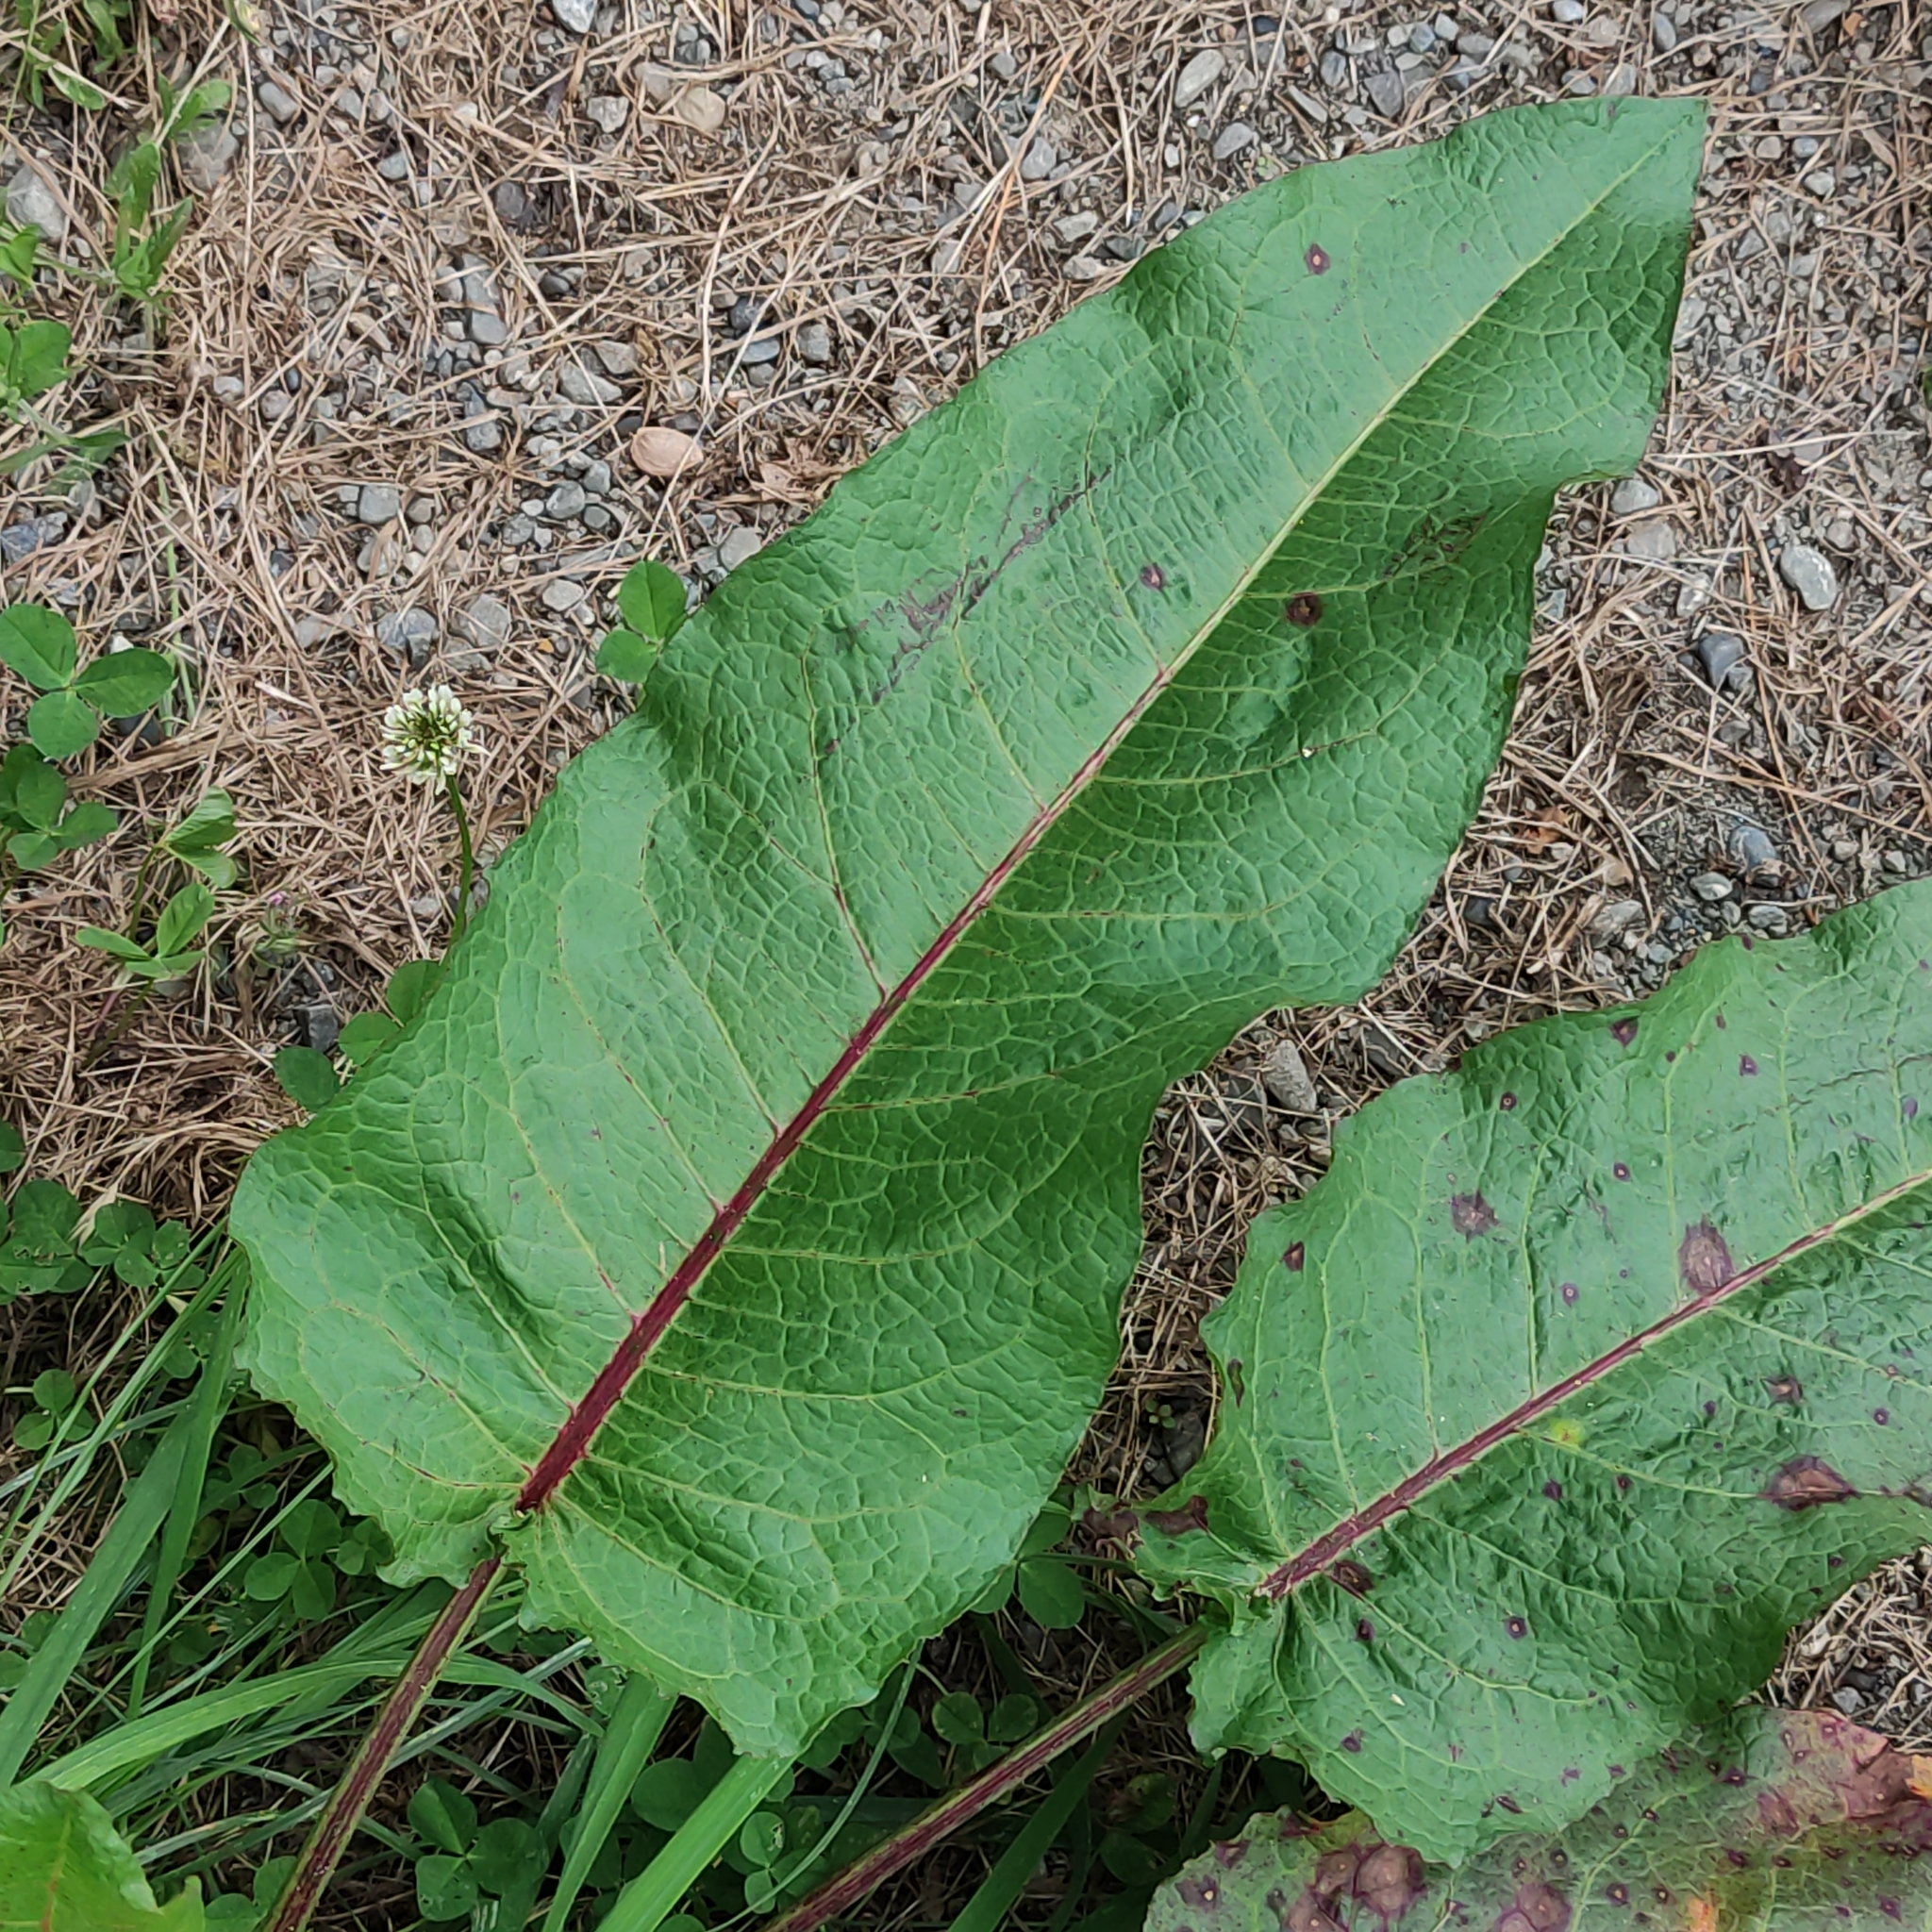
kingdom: Plantae
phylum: Tracheophyta
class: Magnoliopsida
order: Caryophyllales
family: Polygonaceae
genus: Rumex
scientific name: Rumex obtusifolius
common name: Bitter dock
